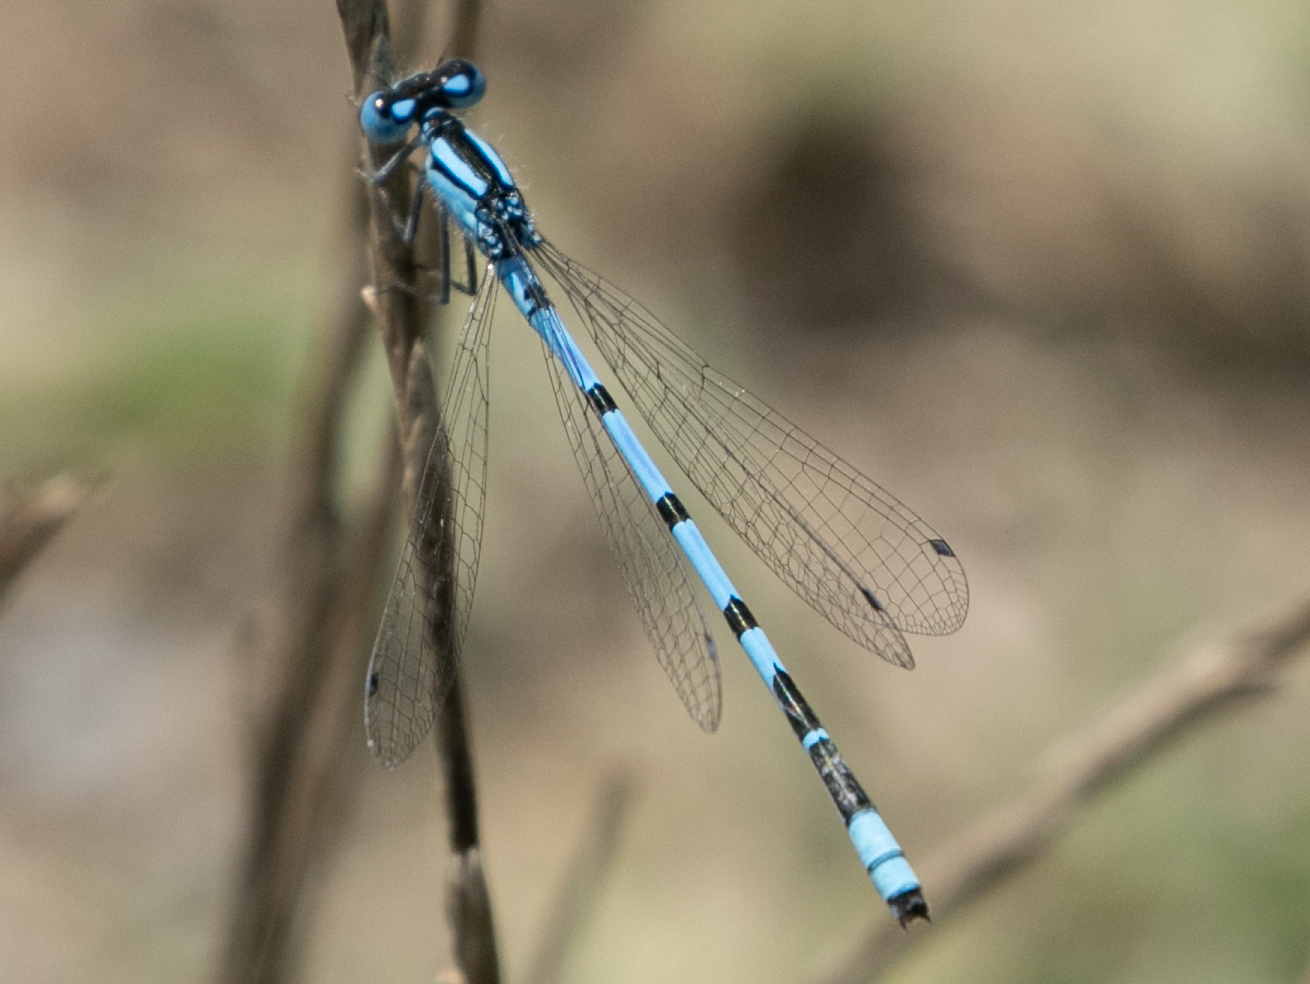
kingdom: Animalia
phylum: Arthropoda
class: Insecta
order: Odonata
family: Coenagrionidae
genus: Enallagma
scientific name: Enallagma cyathigerum
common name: Common blue damselfly
